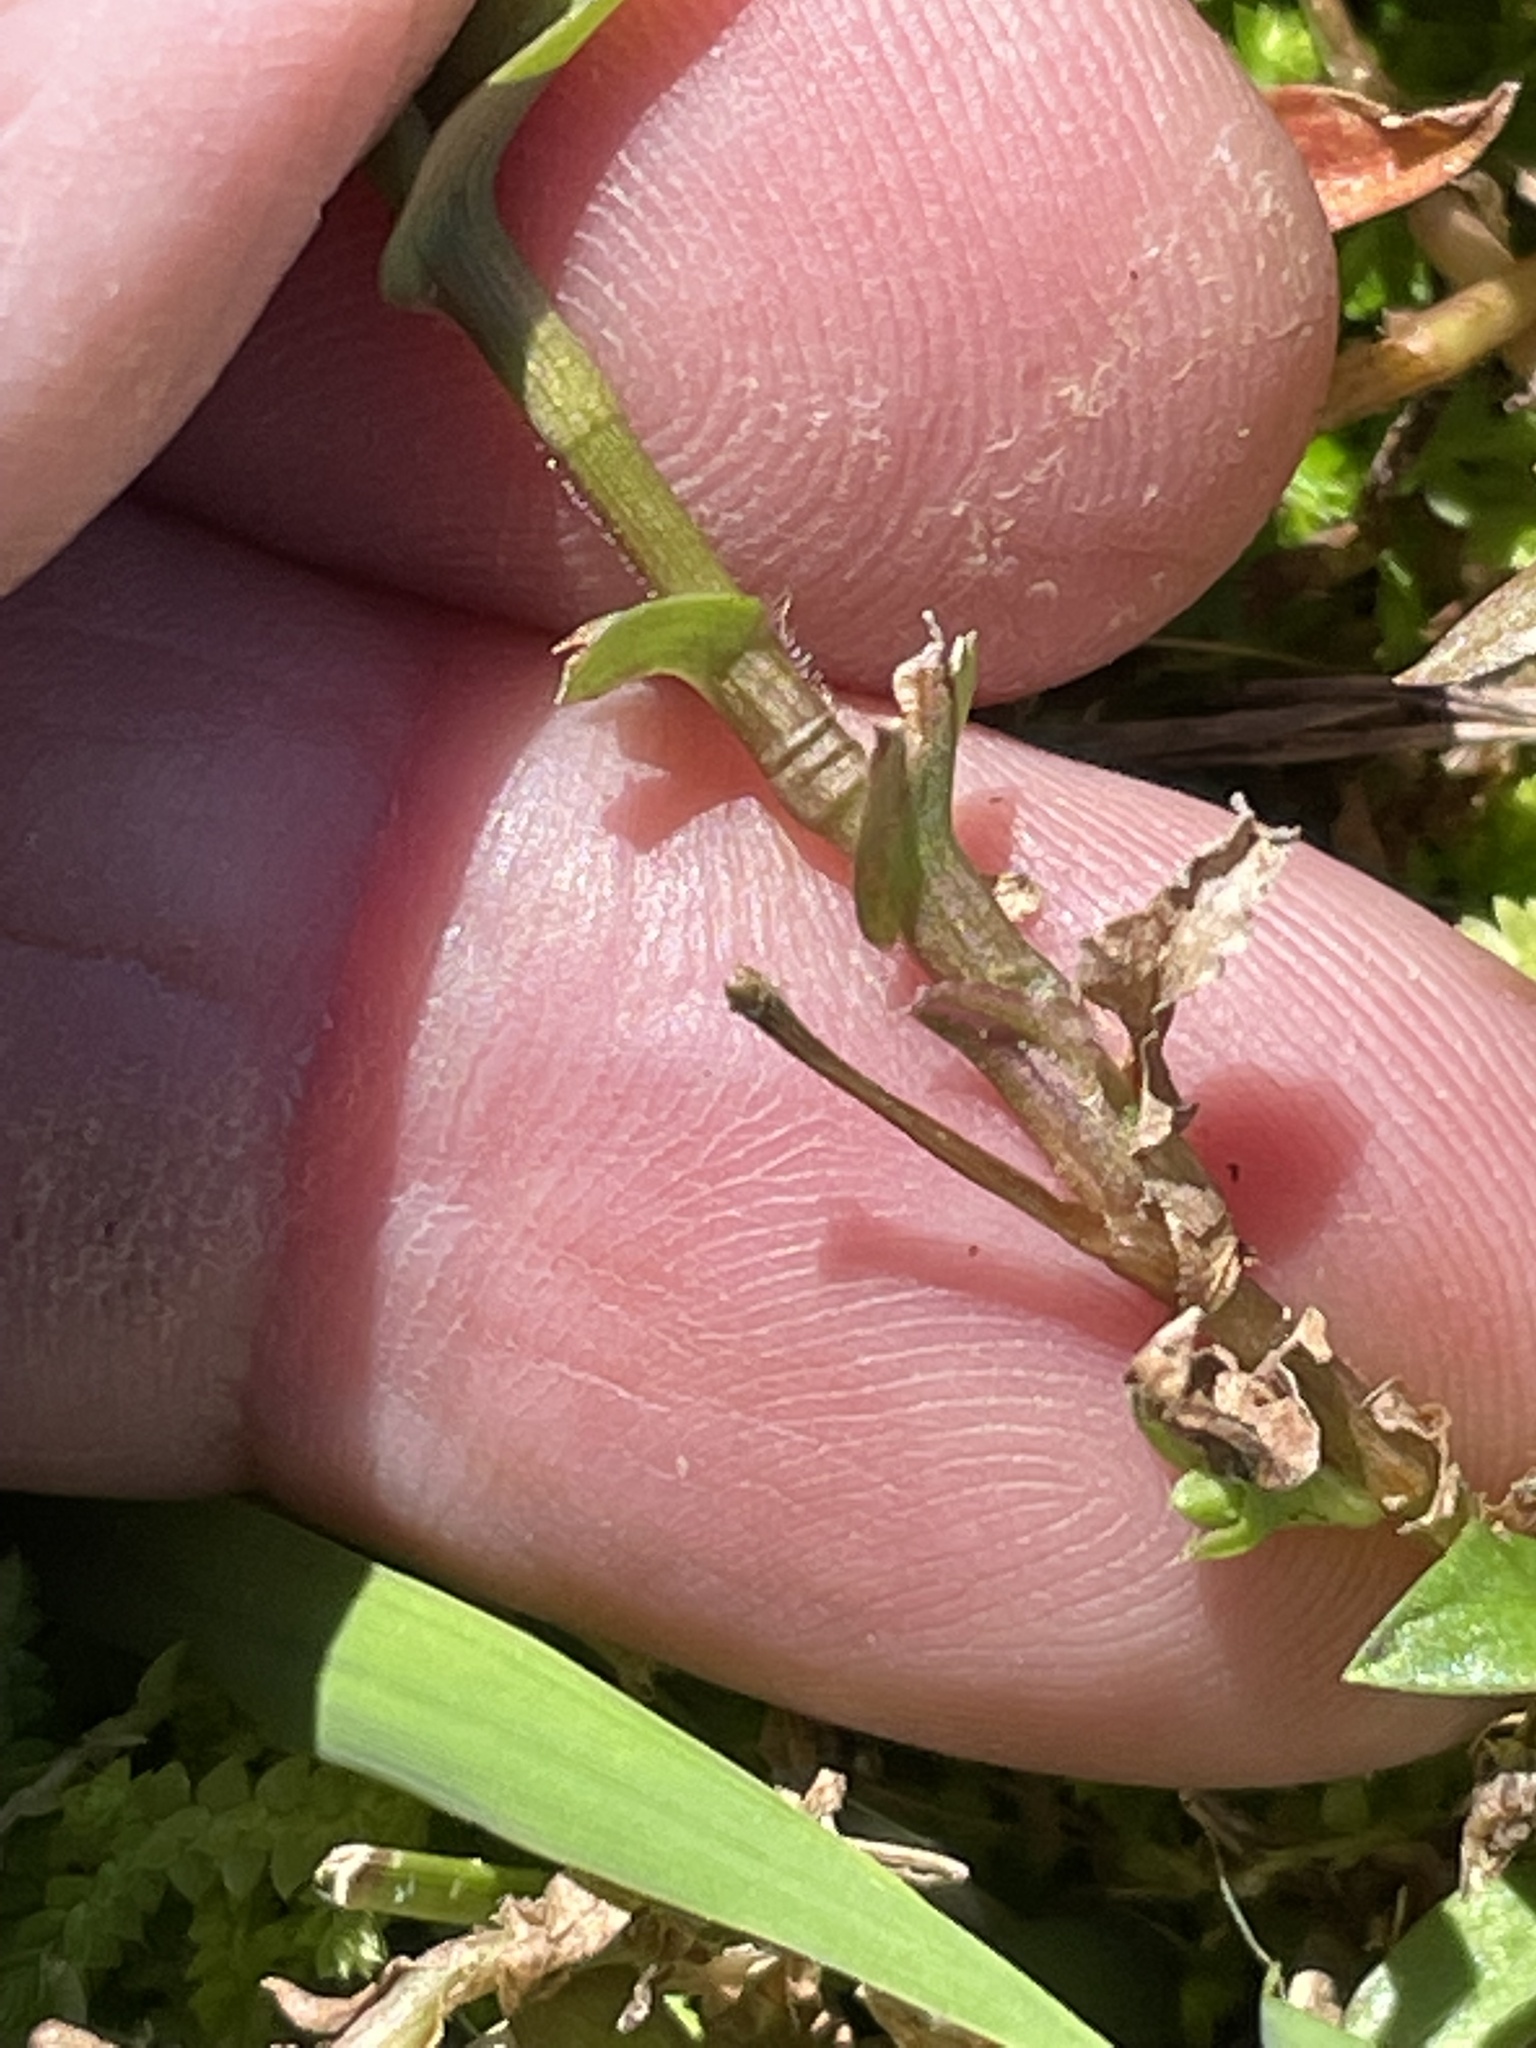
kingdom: Plantae
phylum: Tracheophyta
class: Liliopsida
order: Commelinales
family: Commelinaceae
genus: Murdannia
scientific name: Murdannia keisak
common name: Wartremoving herb
